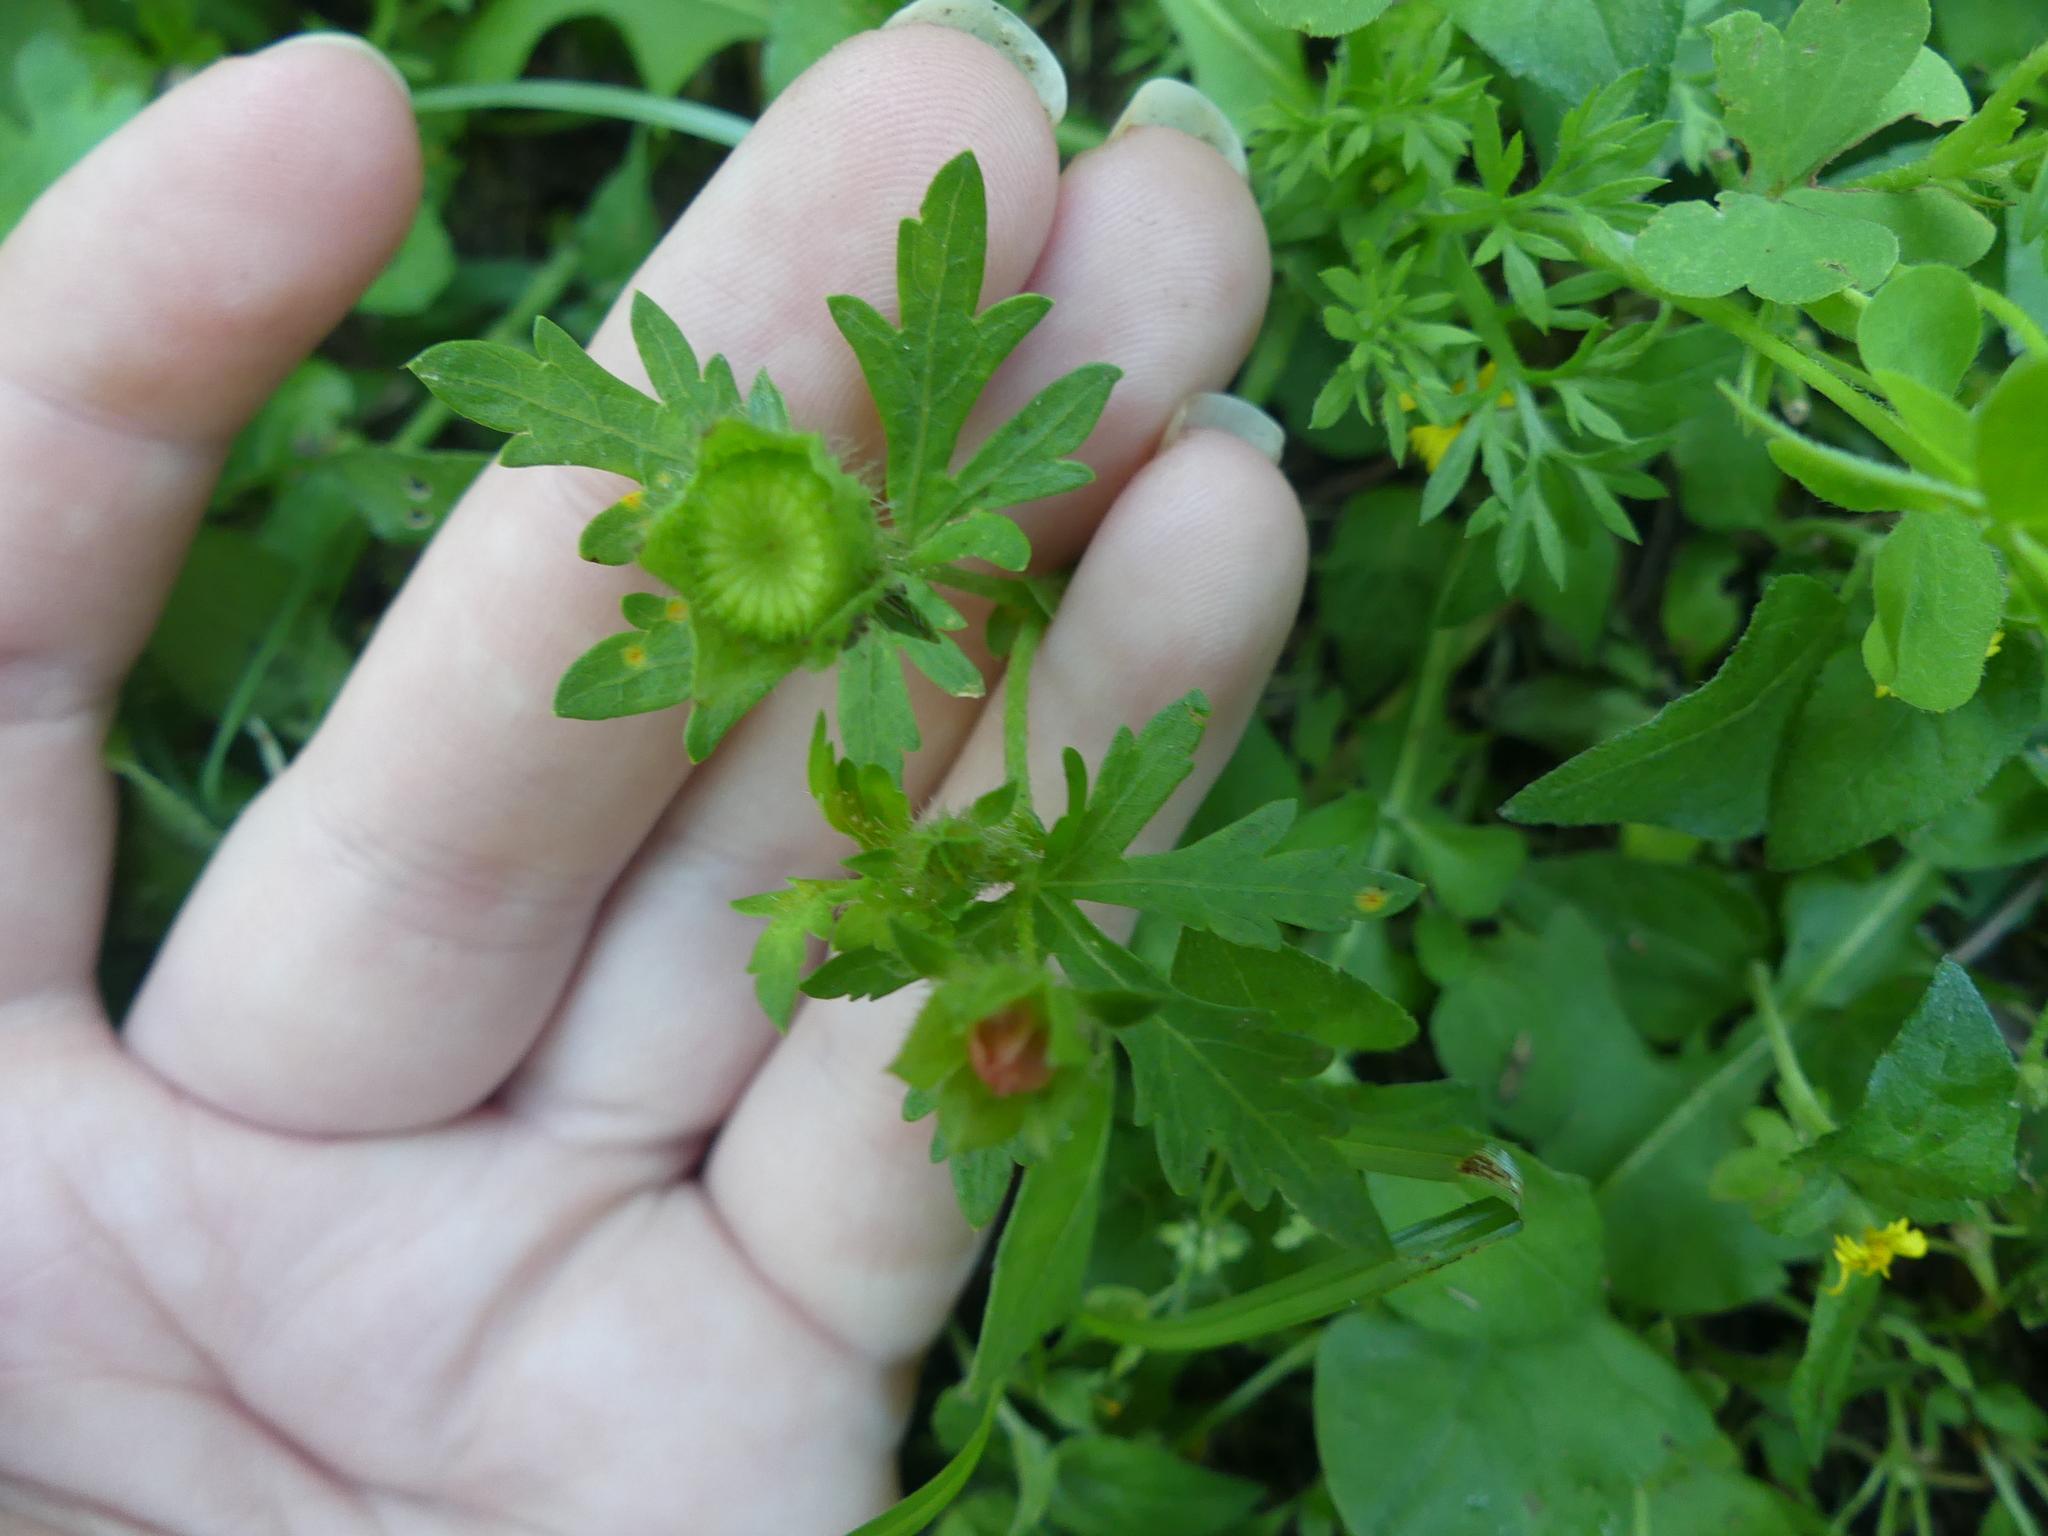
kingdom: Plantae
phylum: Tracheophyta
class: Magnoliopsida
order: Malvales
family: Malvaceae
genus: Modiola
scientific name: Modiola caroliniana
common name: Carolina bristlemallow
